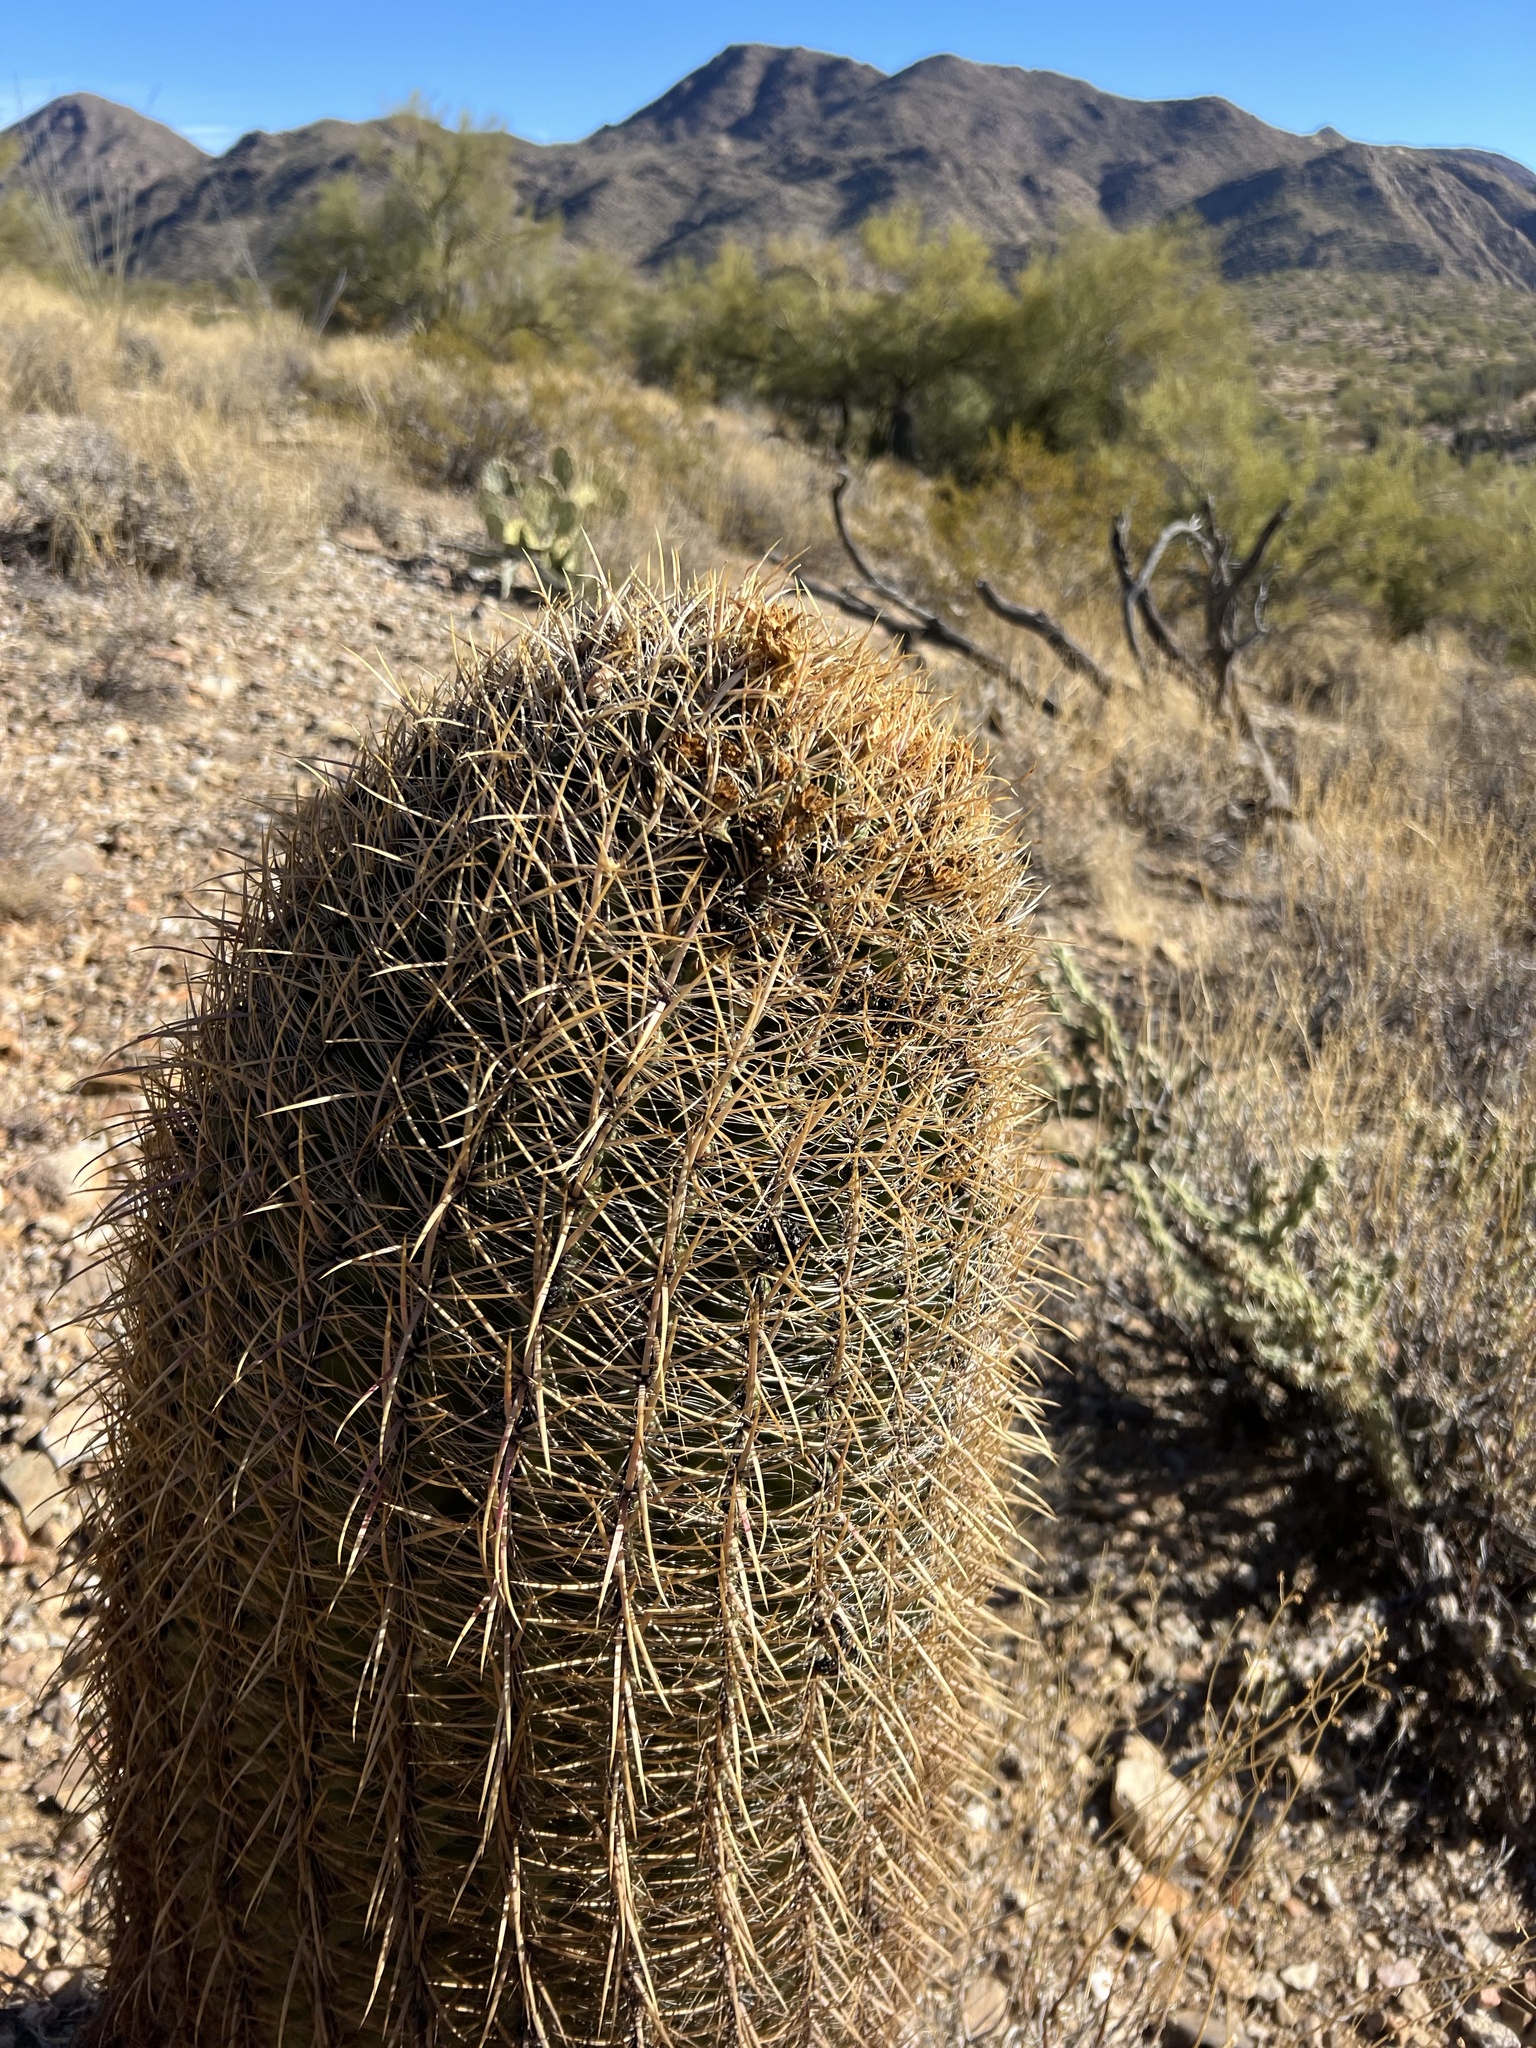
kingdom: Plantae
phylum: Tracheophyta
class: Magnoliopsida
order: Caryophyllales
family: Cactaceae
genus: Ferocactus
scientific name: Ferocactus cylindraceus
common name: California barrel cactus
